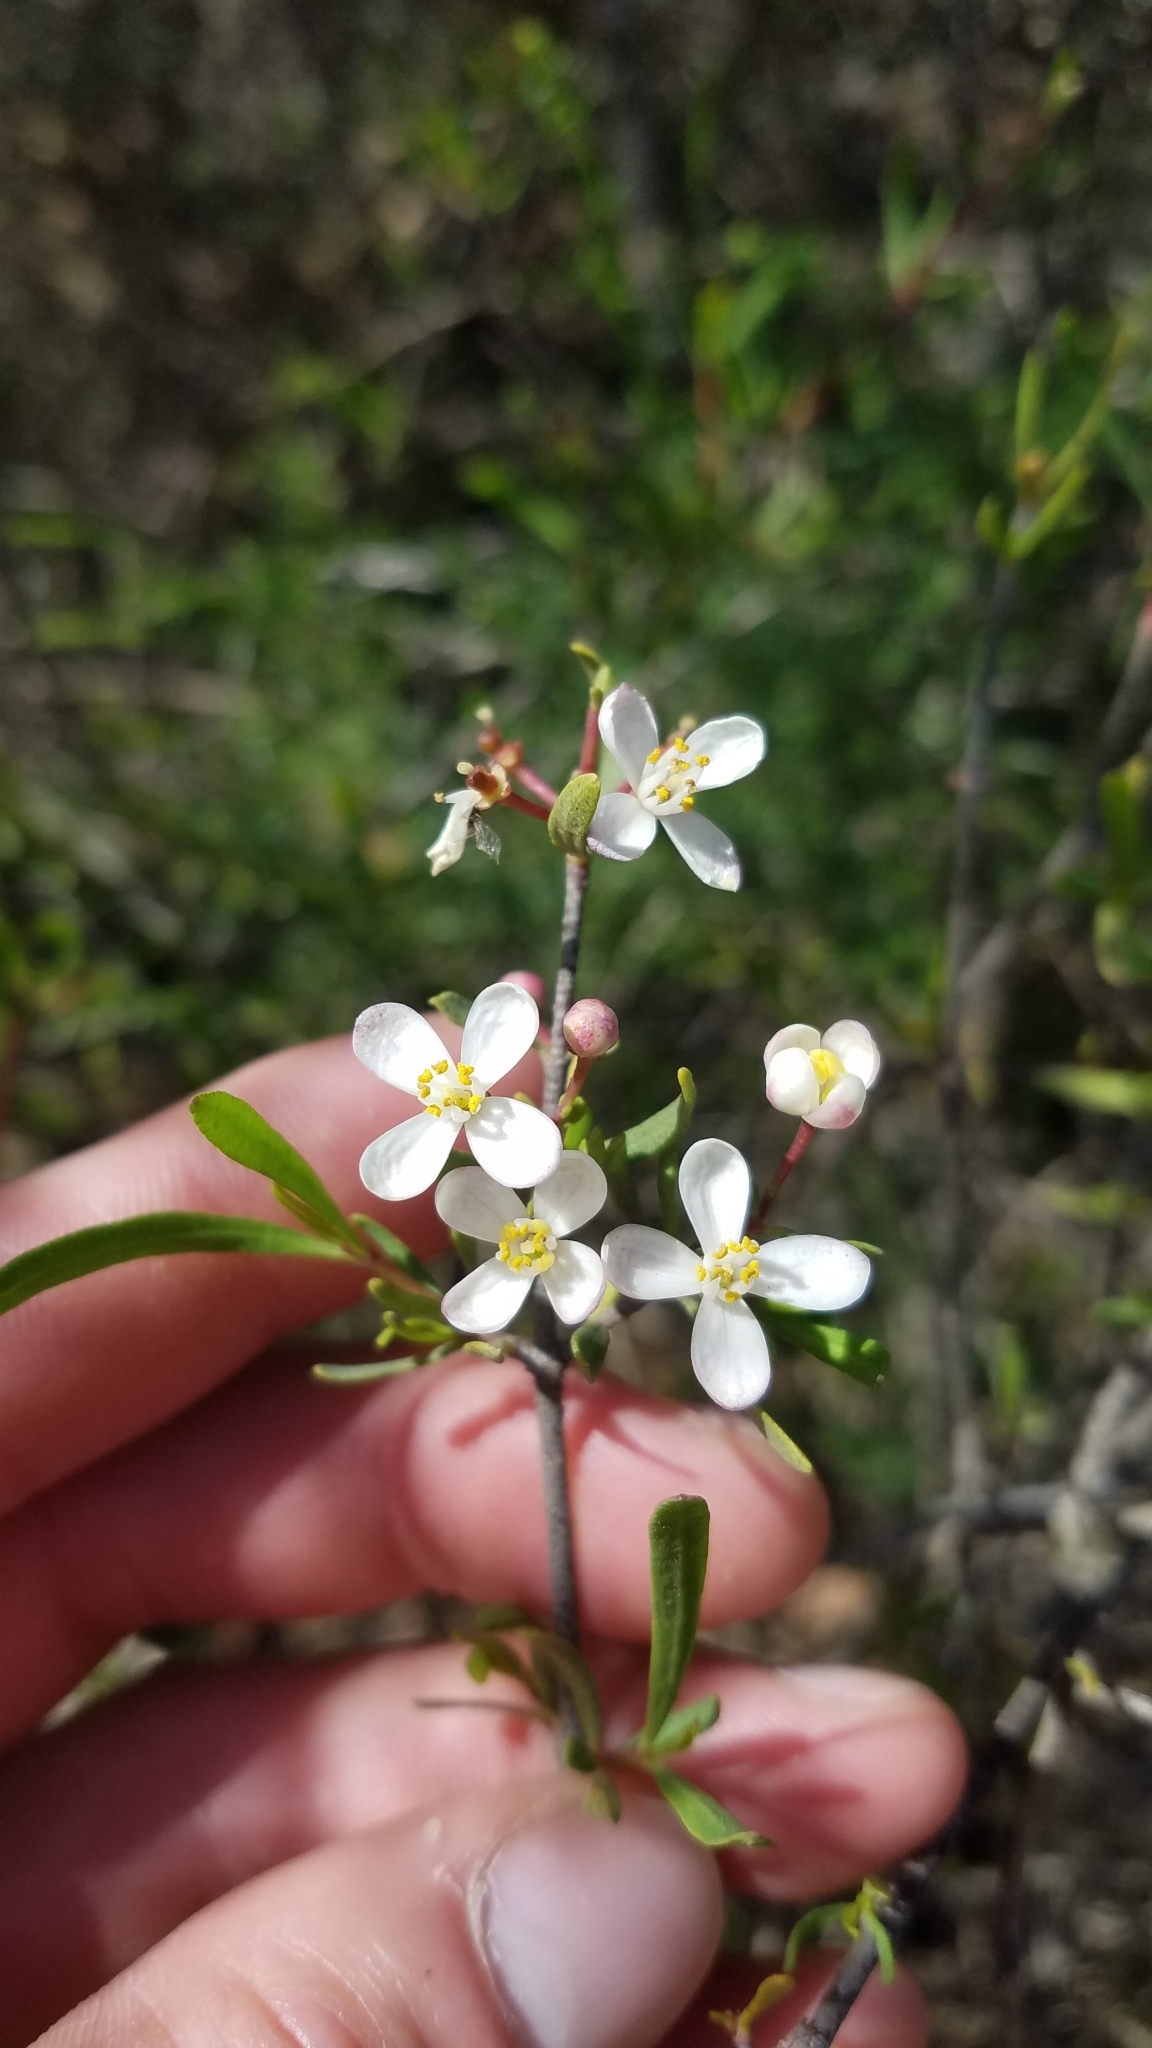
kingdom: Plantae
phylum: Tracheophyta
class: Magnoliopsida
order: Sapindales
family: Rutaceae
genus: Cneoridium
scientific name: Cneoridium dumosum
